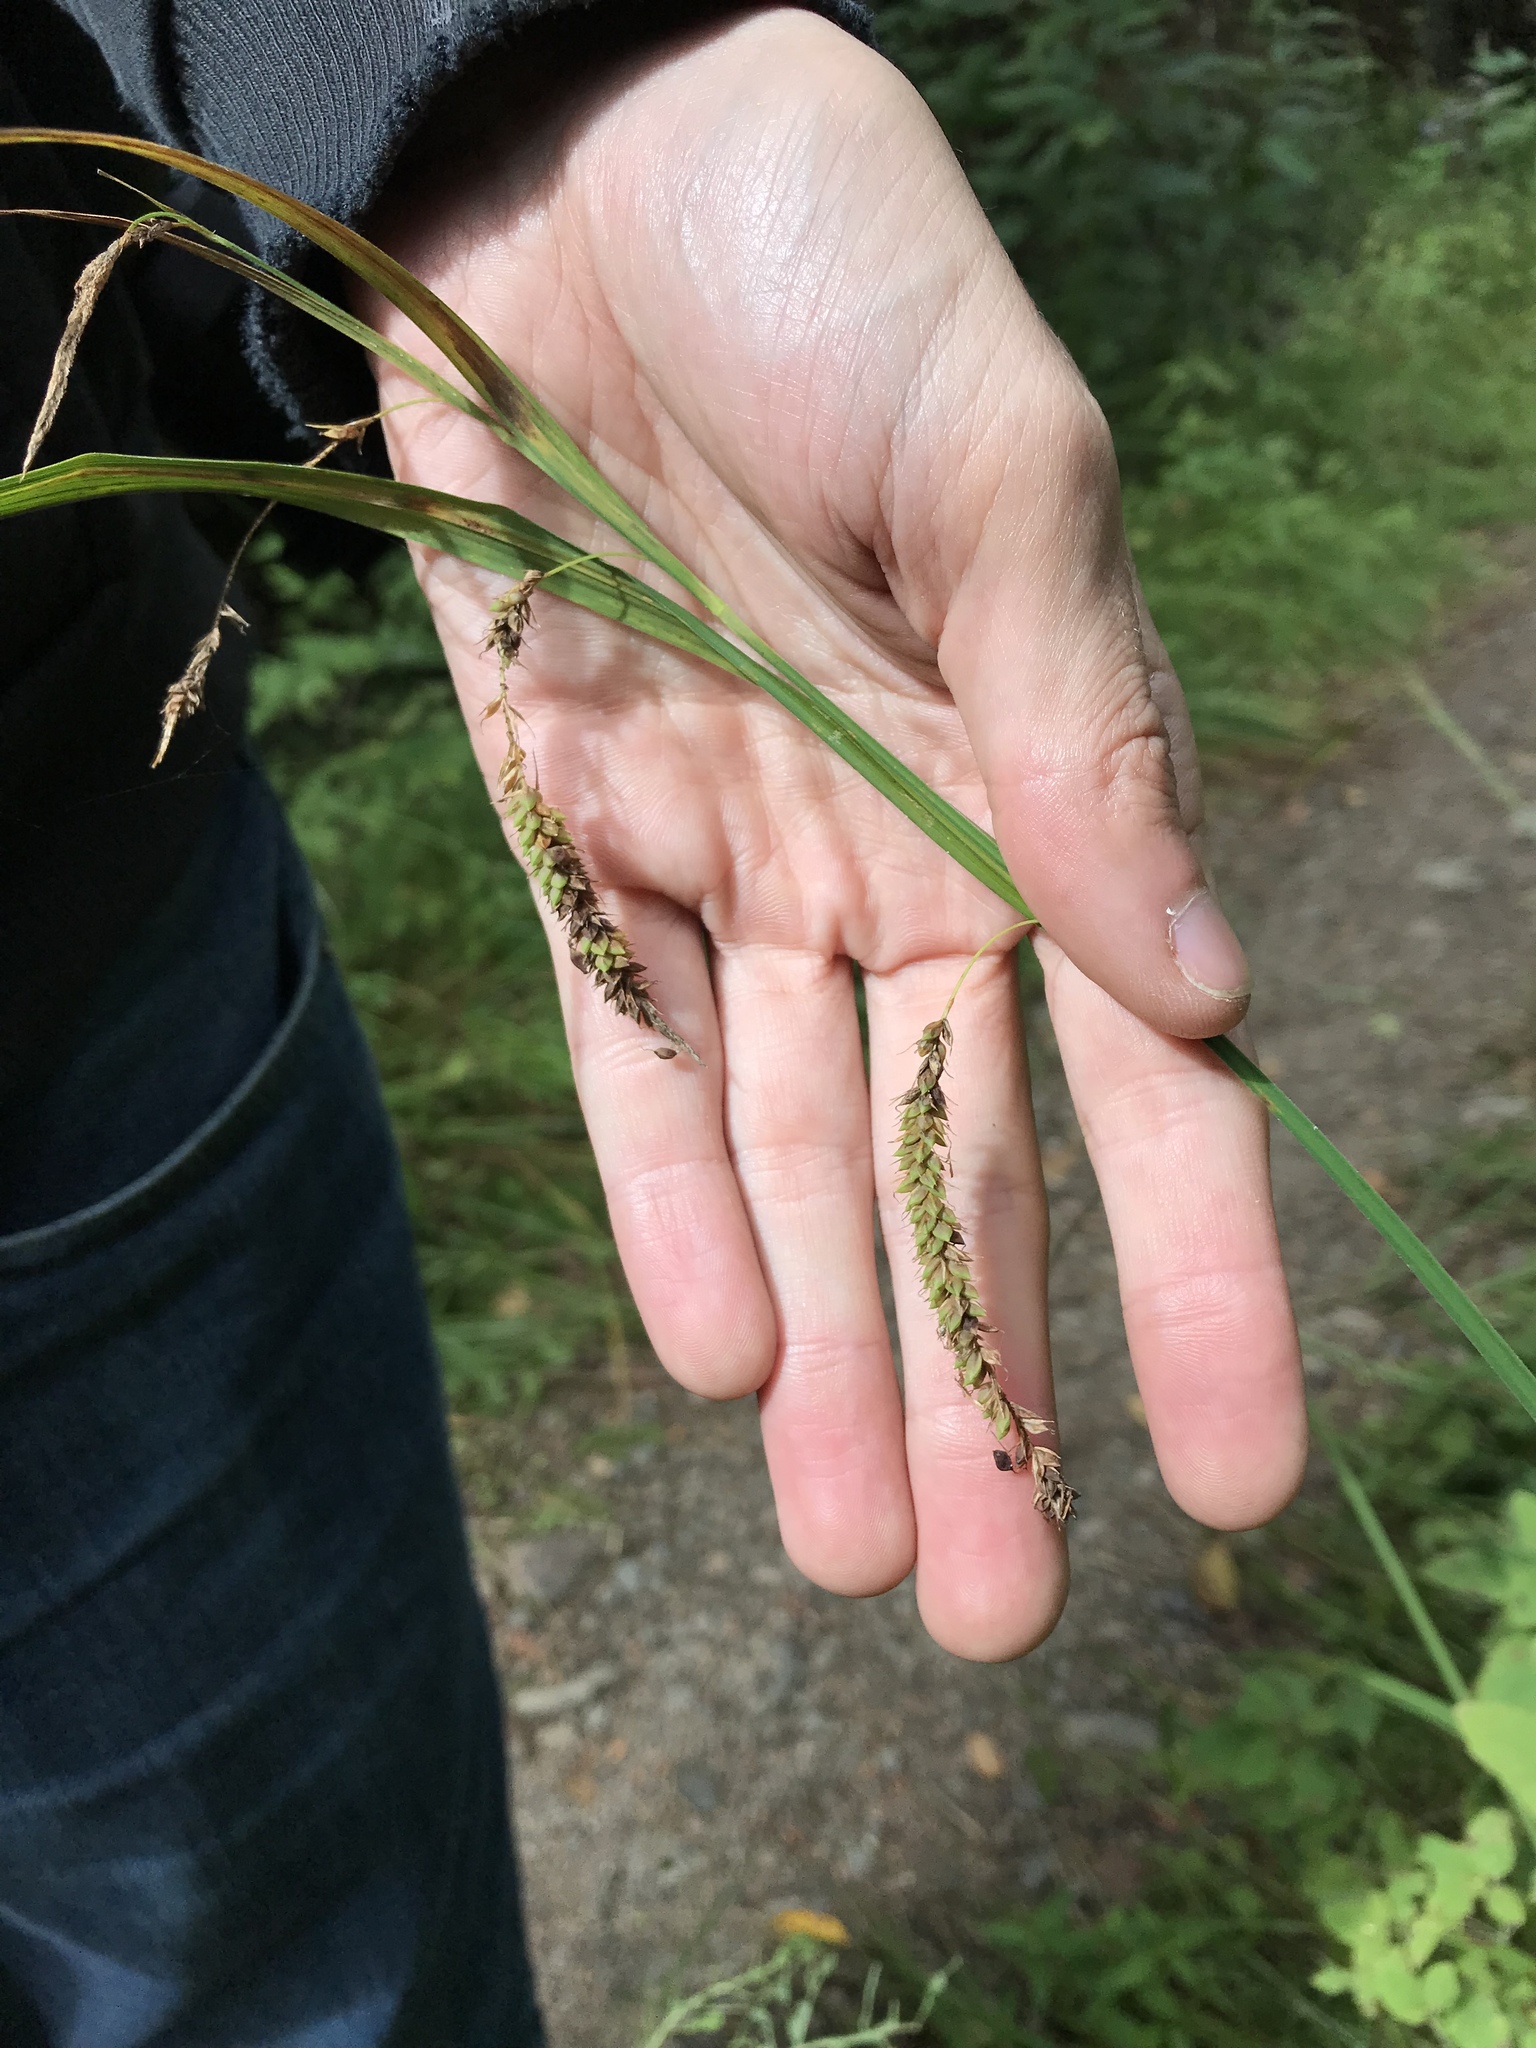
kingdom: Plantae
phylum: Tracheophyta
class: Liliopsida
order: Poales
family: Cyperaceae
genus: Carex
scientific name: Carex gynandra
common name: Nodding sedge
